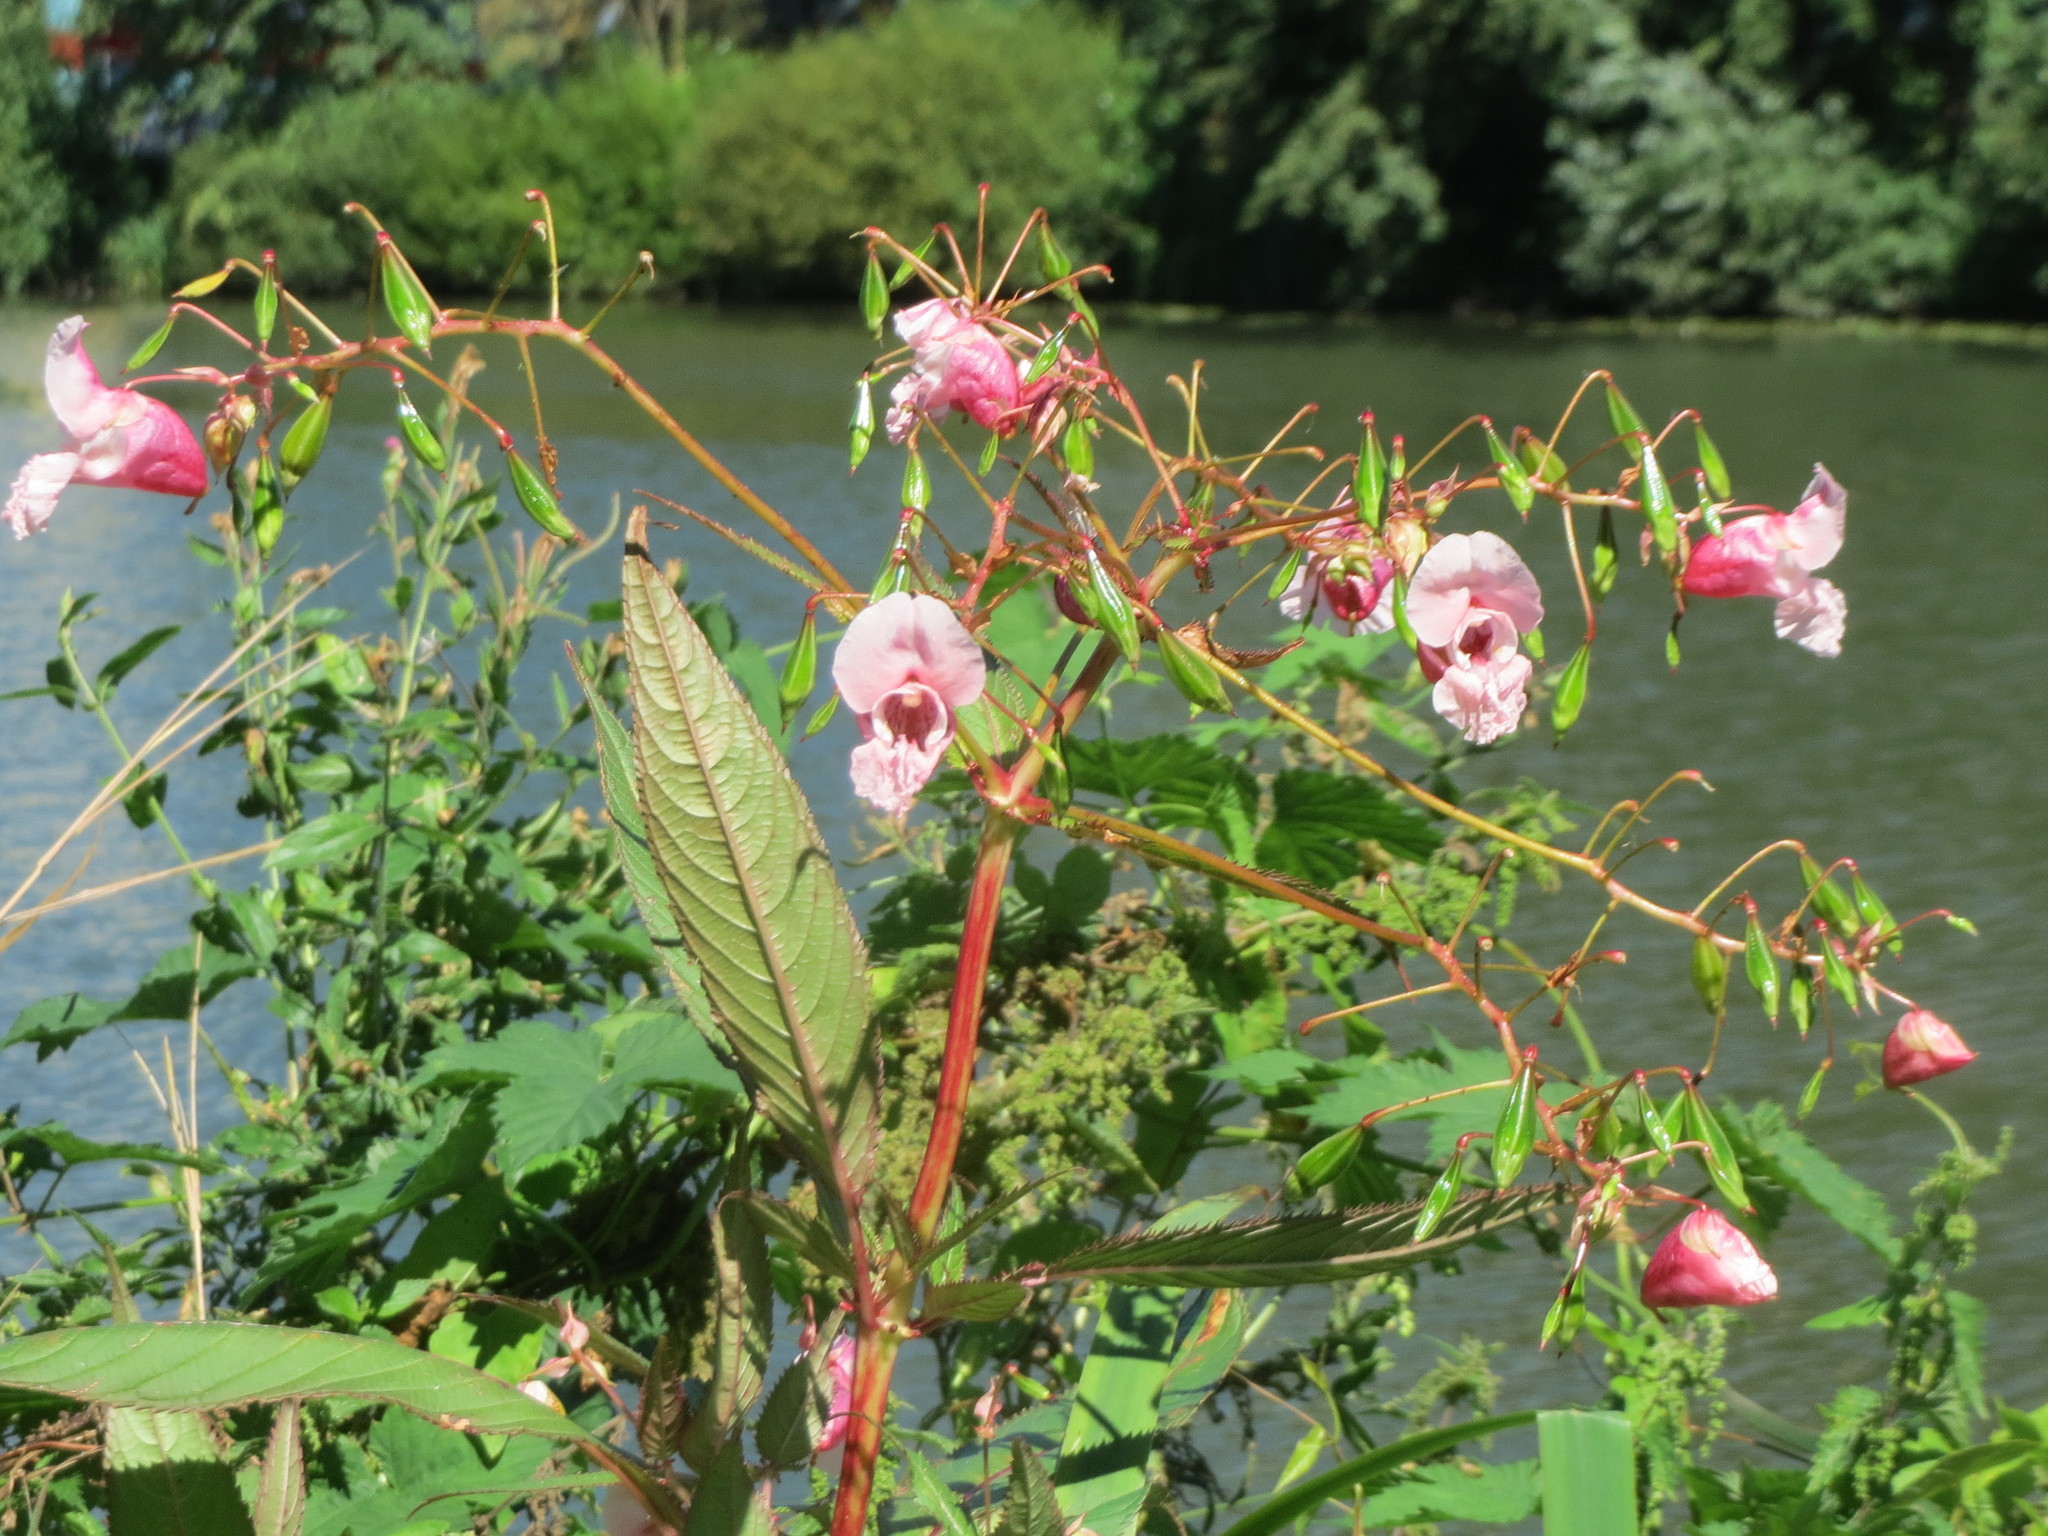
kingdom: Plantae
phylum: Tracheophyta
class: Magnoliopsida
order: Ericales
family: Balsaminaceae
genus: Impatiens
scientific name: Impatiens glandulifera
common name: Himalayan balsam
